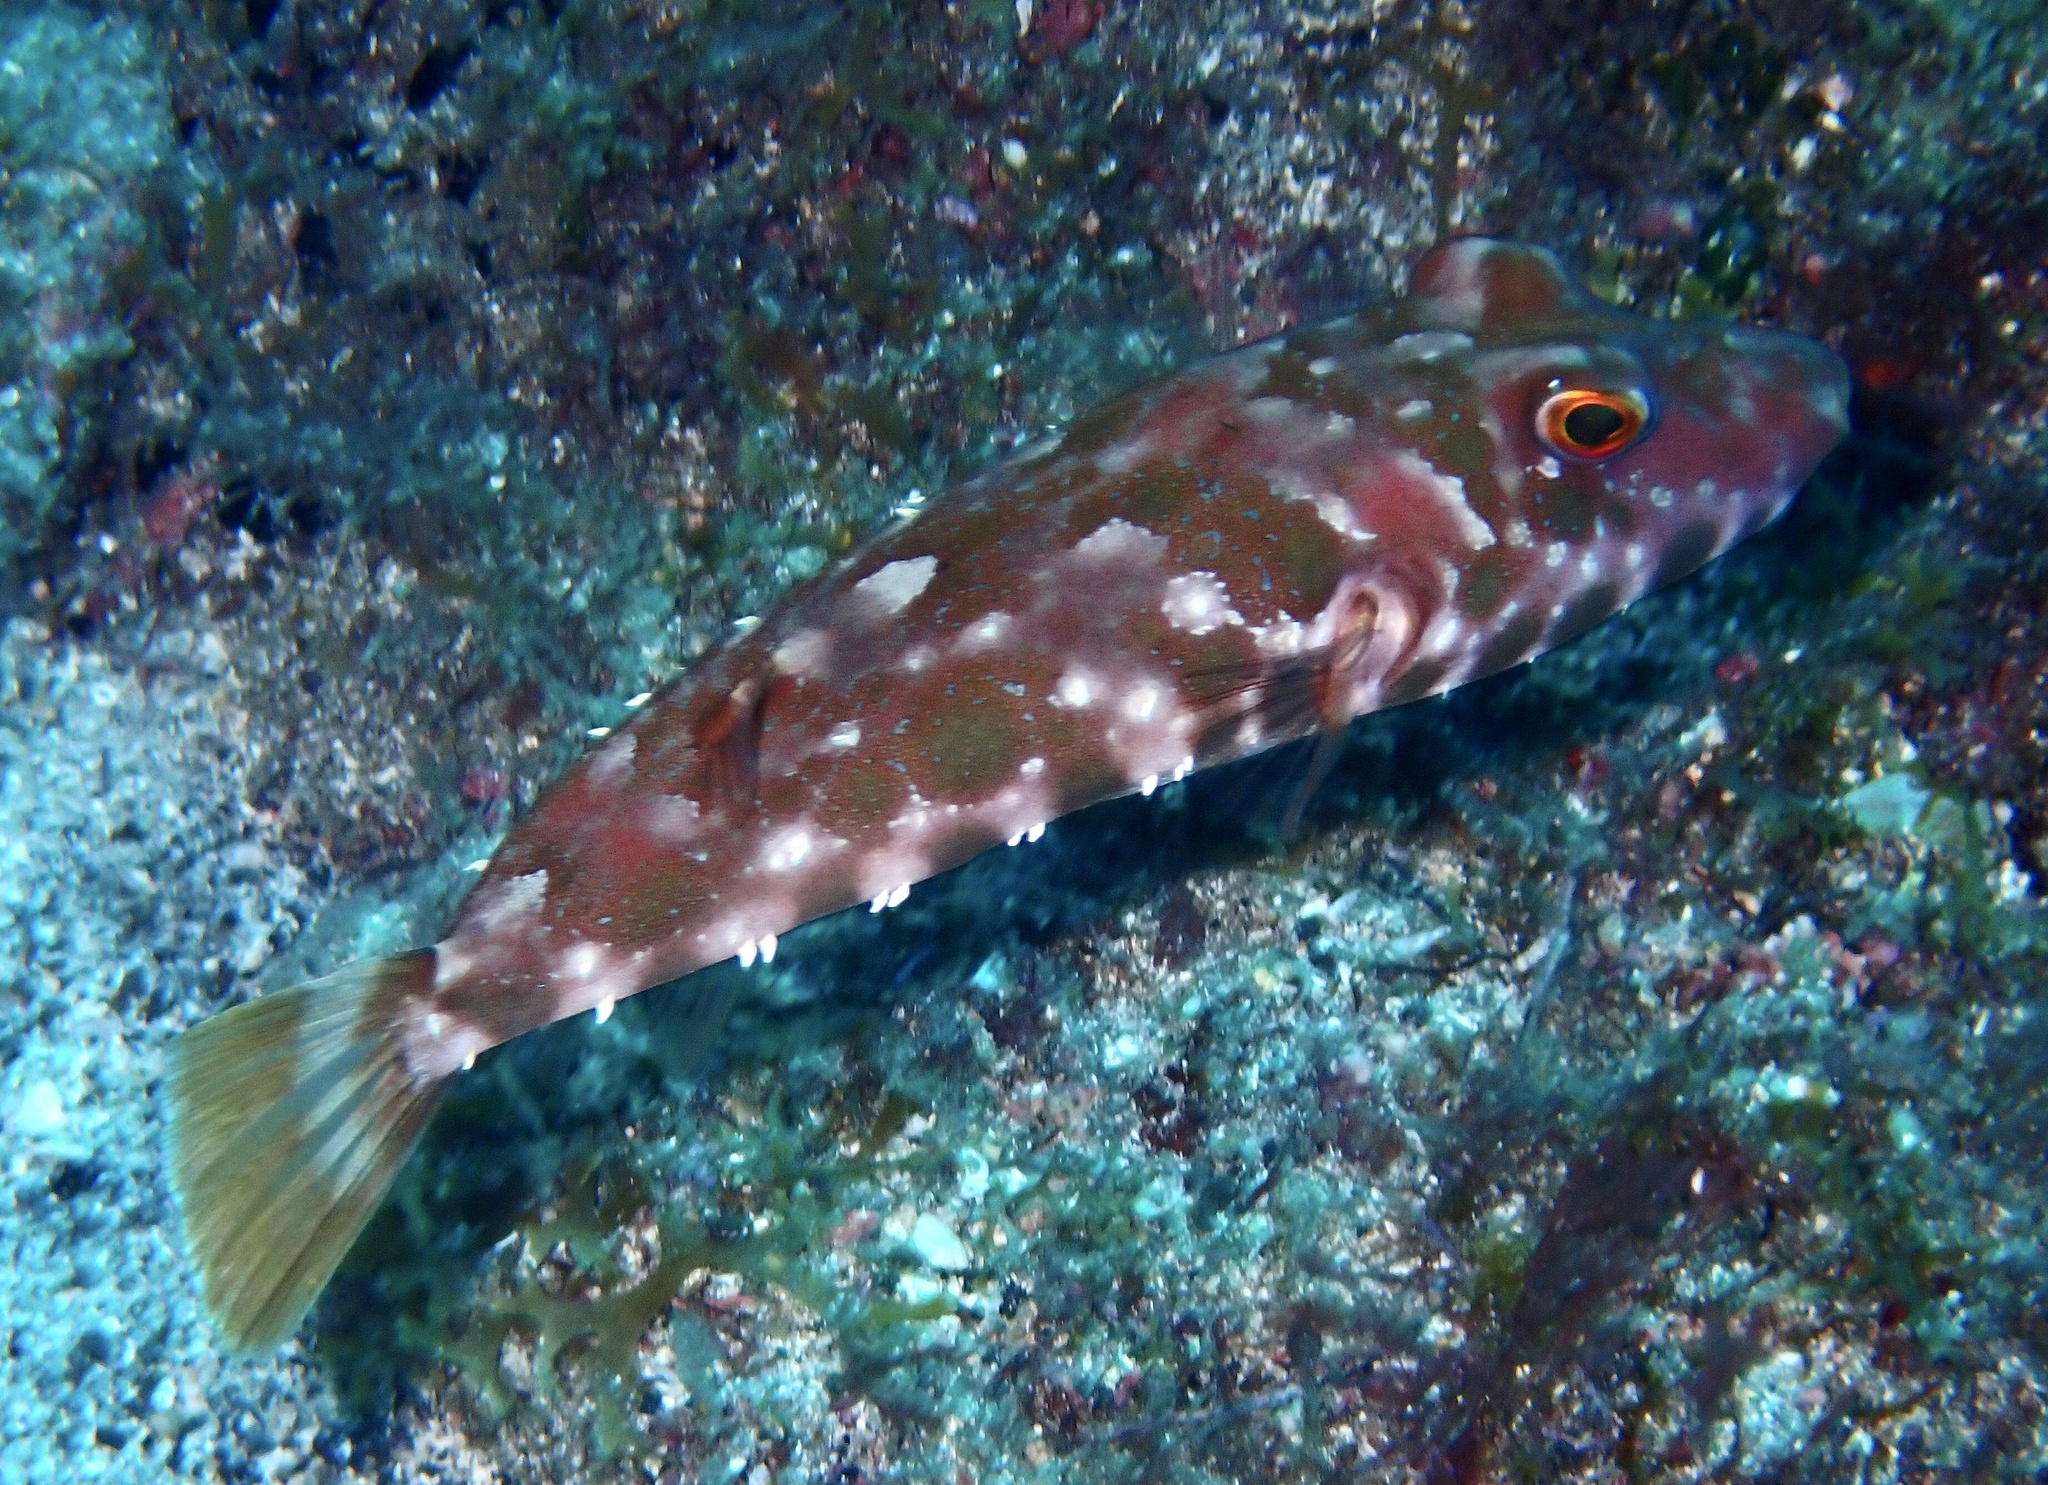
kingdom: Animalia
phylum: Chordata
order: Tetraodontiformes
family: Tetraodontidae
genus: Sphoeroides
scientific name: Sphoeroides marmoratus
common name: Guinean puffer
